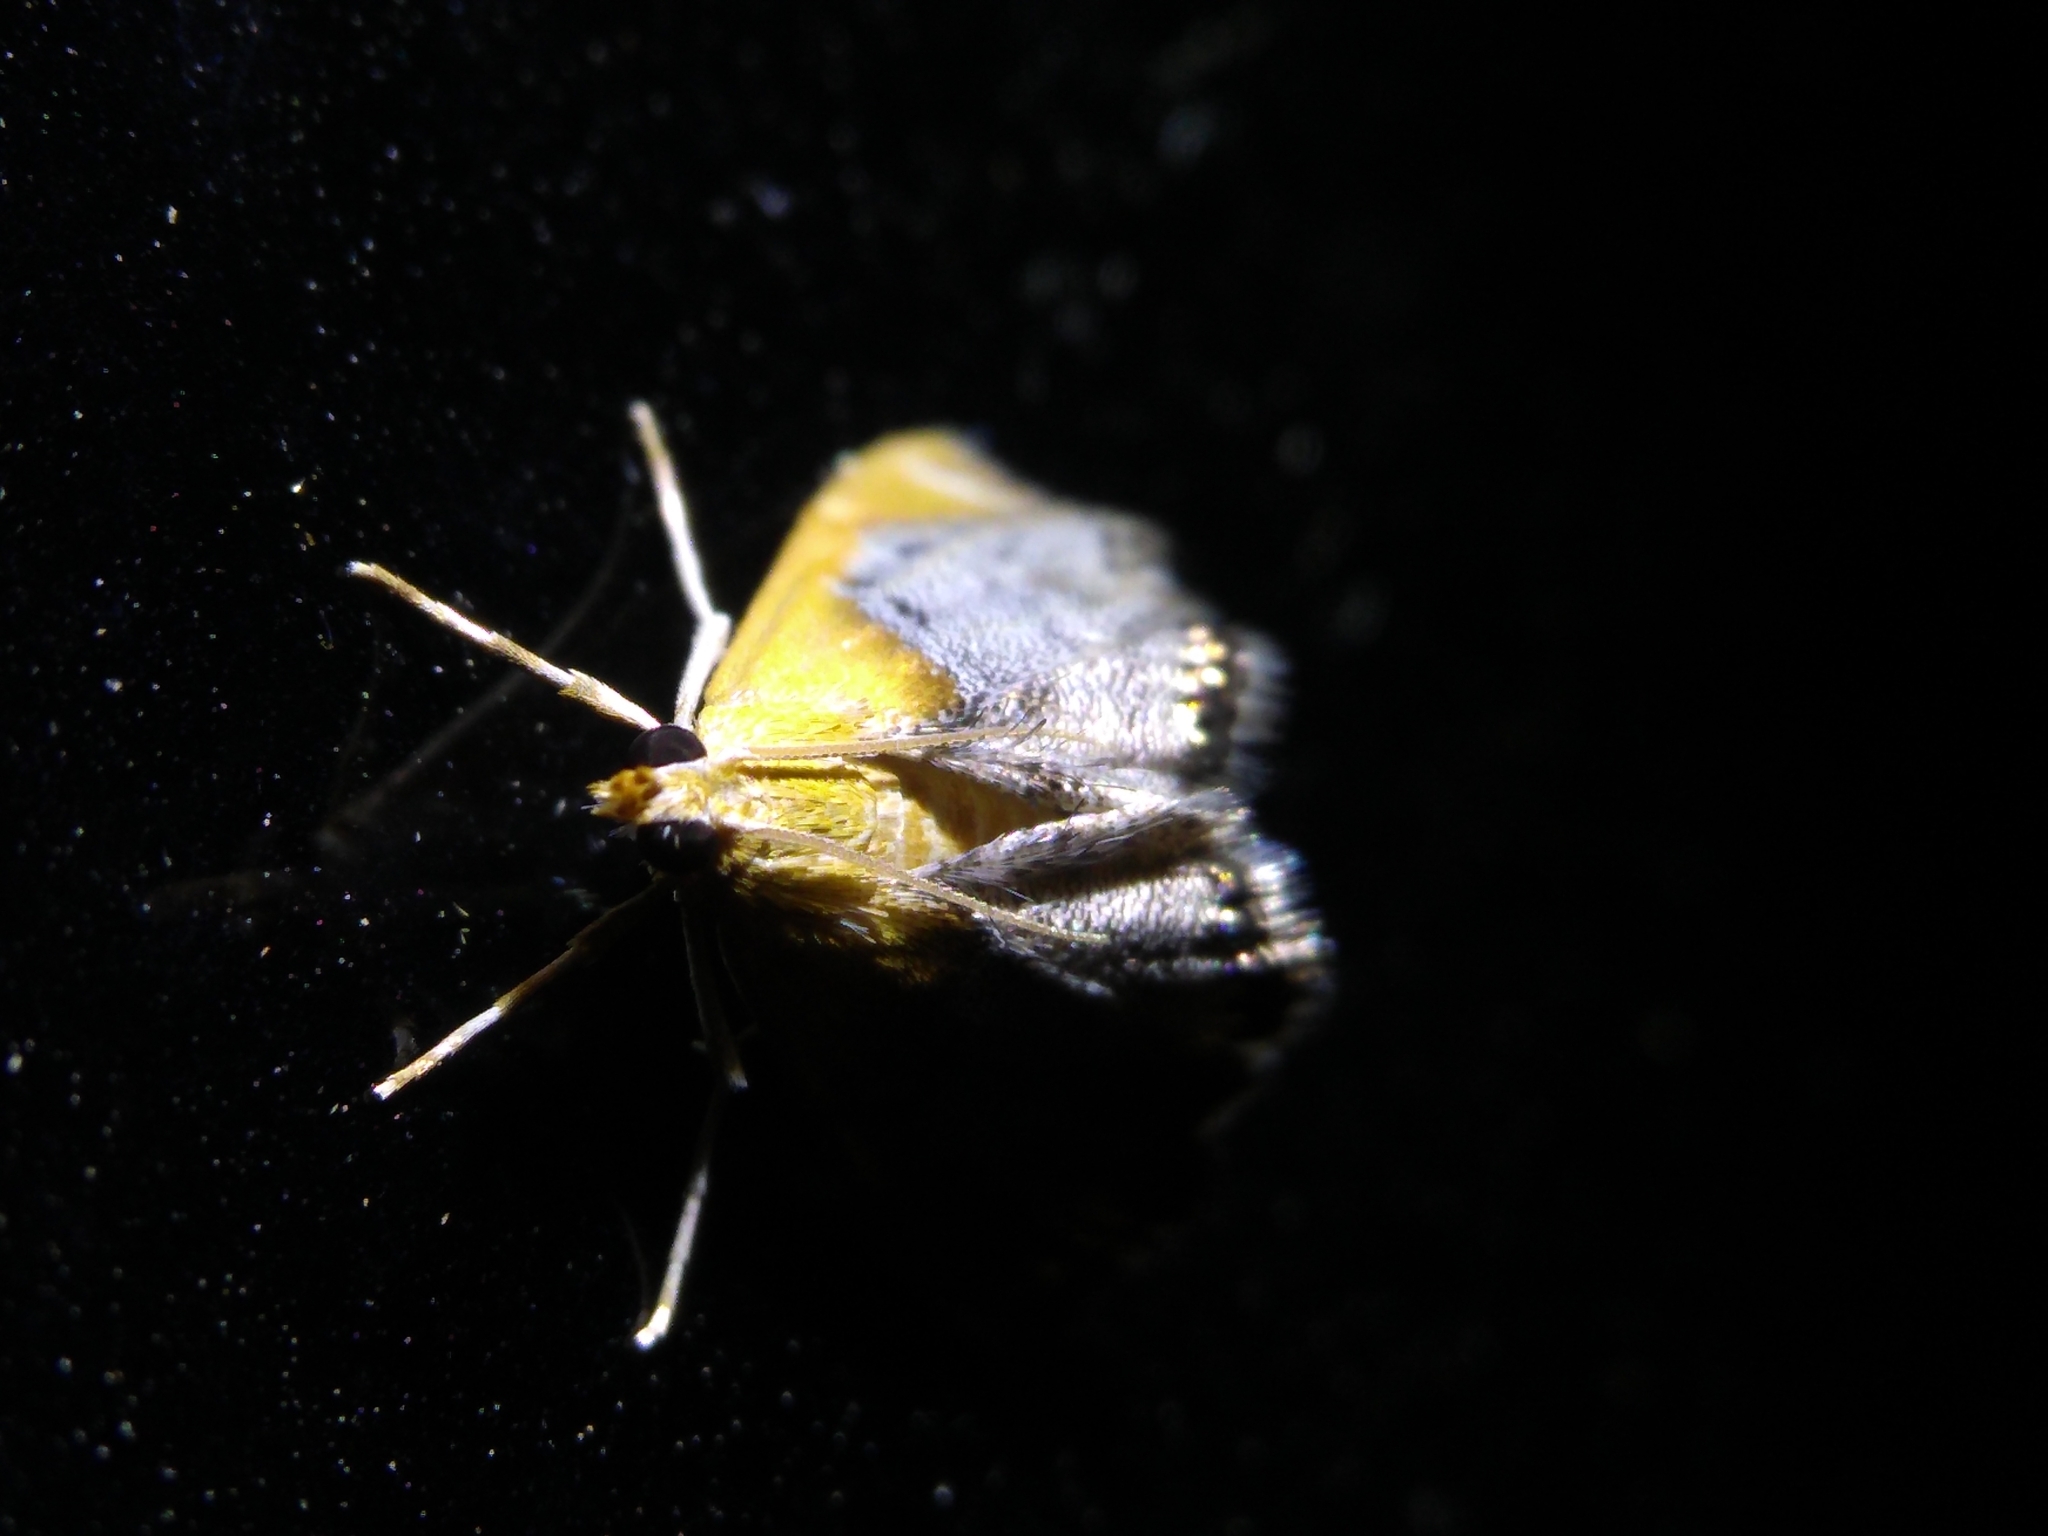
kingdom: Animalia
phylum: Arthropoda
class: Insecta
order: Lepidoptera
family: Crambidae
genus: Chalcoela
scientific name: Chalcoela iphitalis
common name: Sooty-winged chalcoela moth
